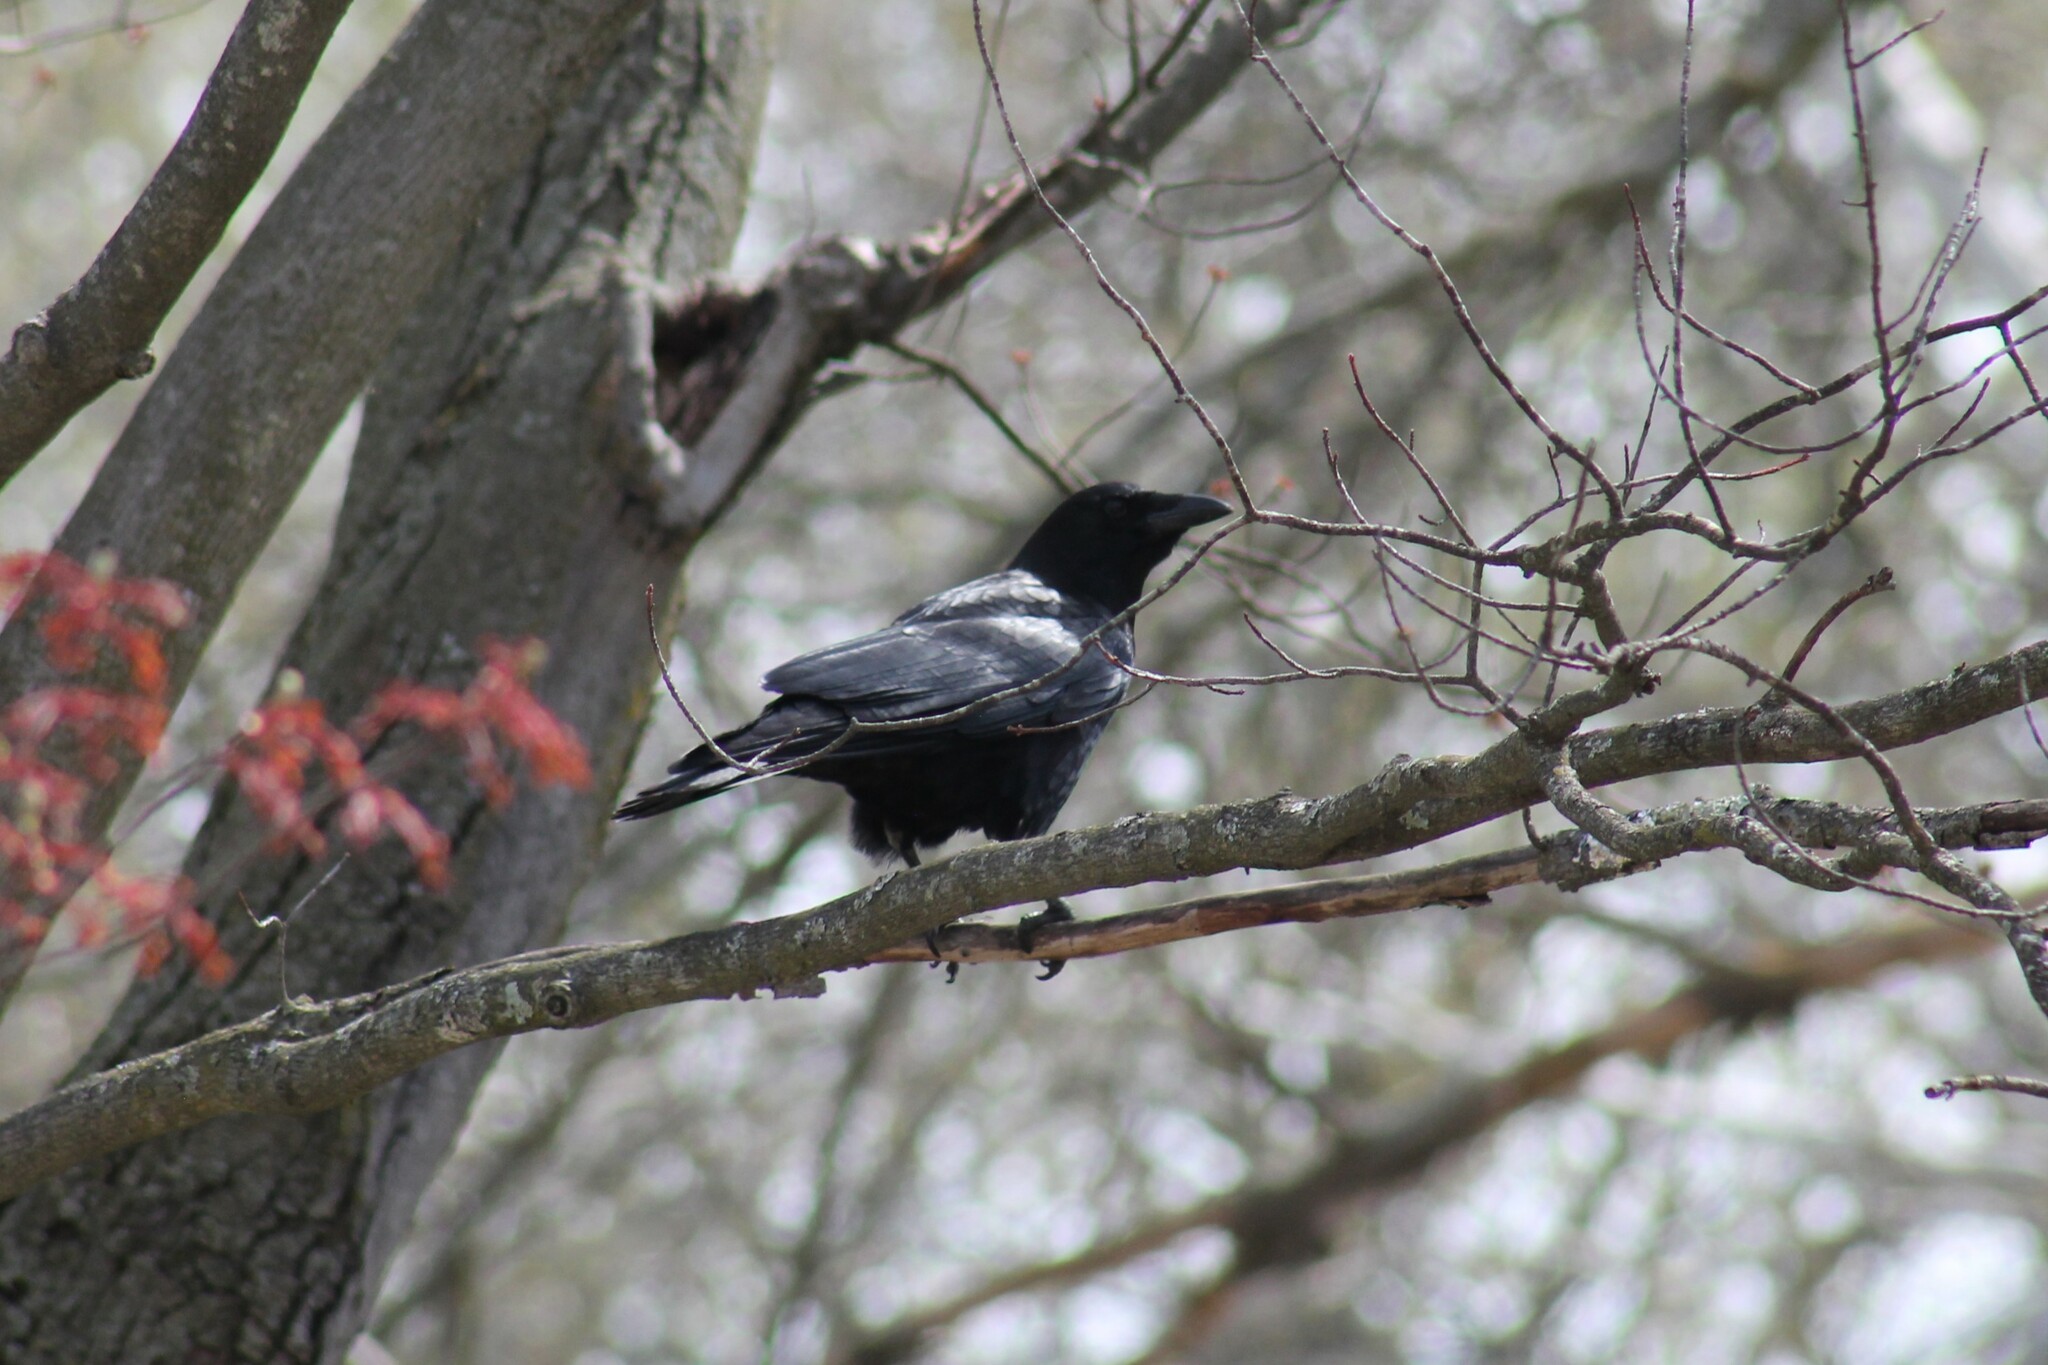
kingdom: Animalia
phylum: Chordata
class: Aves
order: Passeriformes
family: Corvidae
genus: Corvus
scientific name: Corvus brachyrhynchos
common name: American crow
